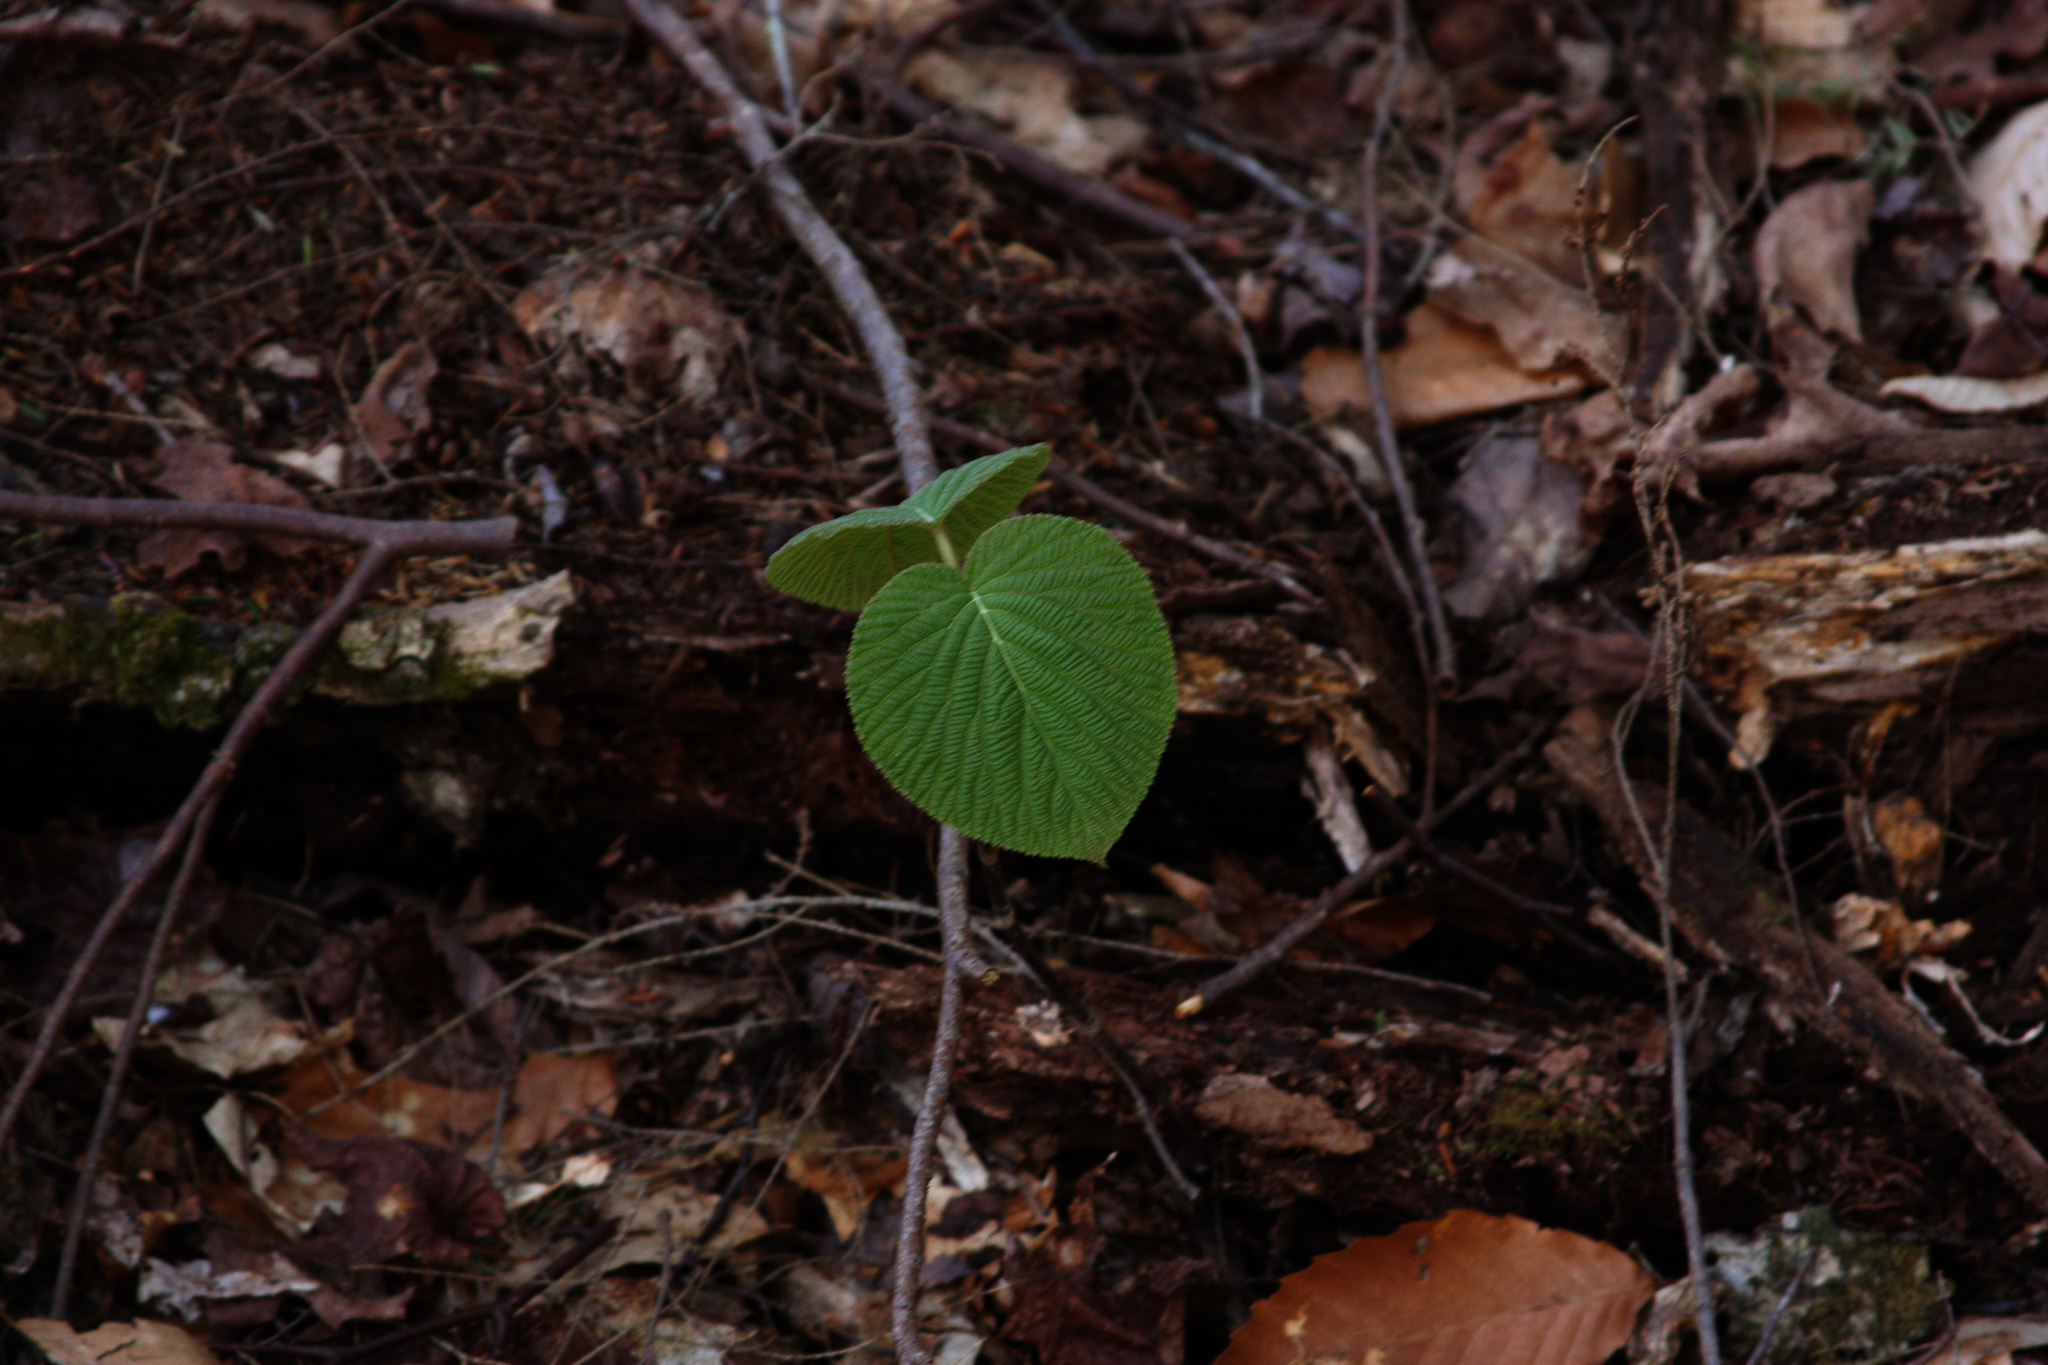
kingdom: Plantae
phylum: Tracheophyta
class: Magnoliopsida
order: Dipsacales
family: Viburnaceae
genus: Viburnum
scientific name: Viburnum lantanoides
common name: Hobblebush
